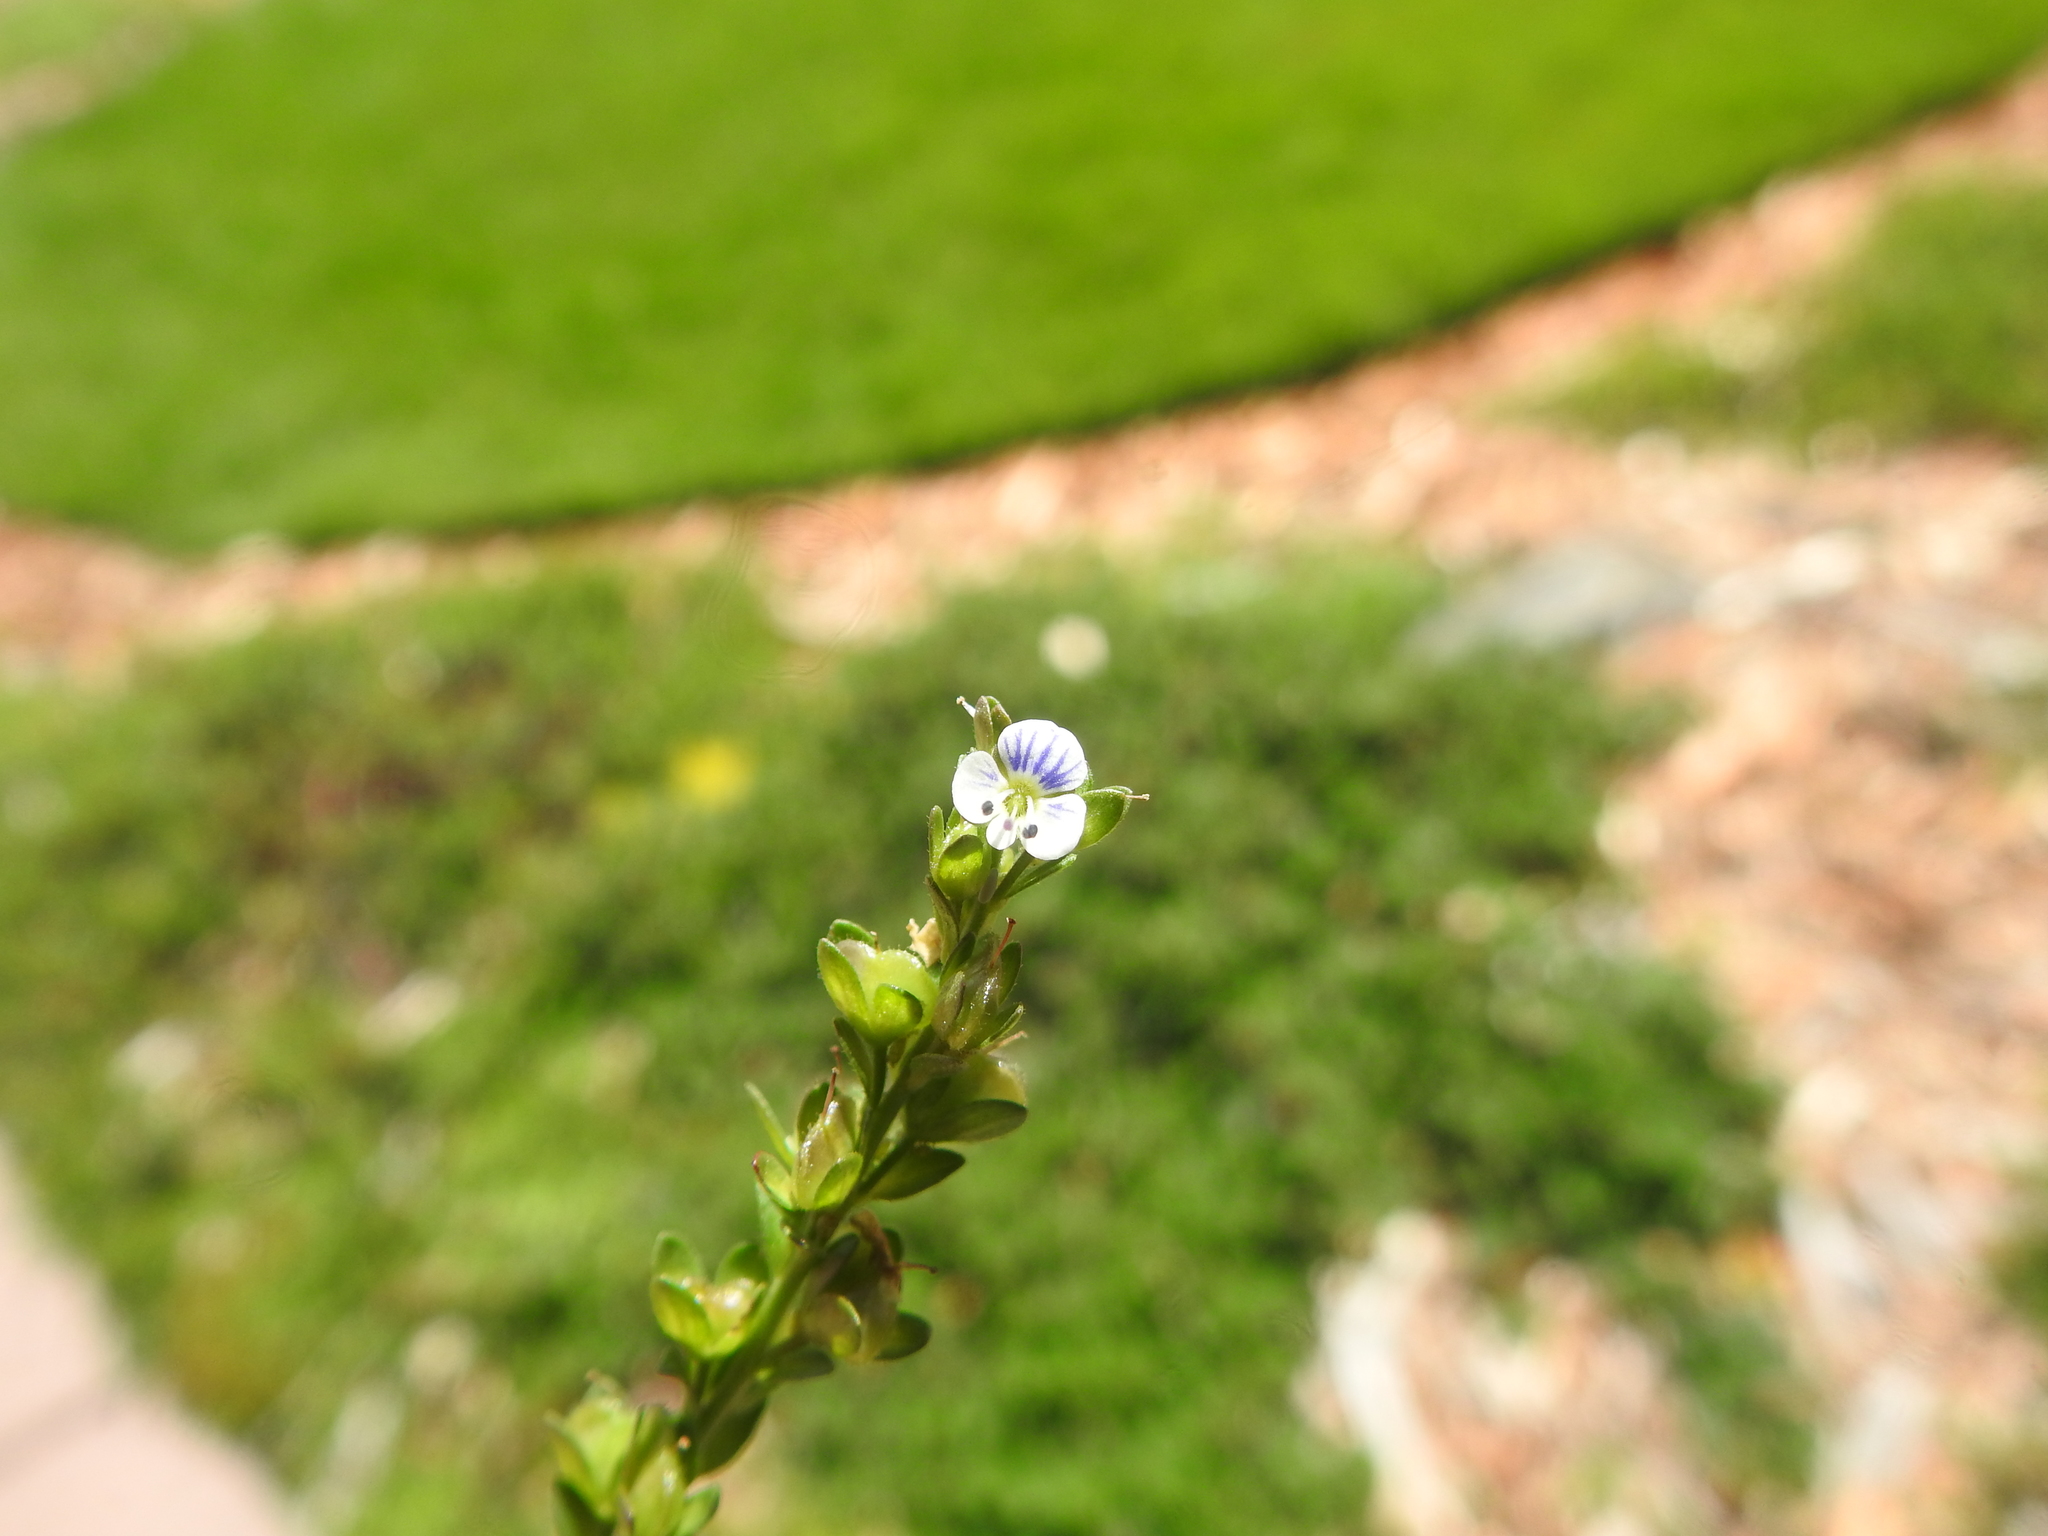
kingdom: Plantae
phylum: Tracheophyta
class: Magnoliopsida
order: Lamiales
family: Plantaginaceae
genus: Veronica
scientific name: Veronica serpyllifolia
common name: Thyme-leaved speedwell
